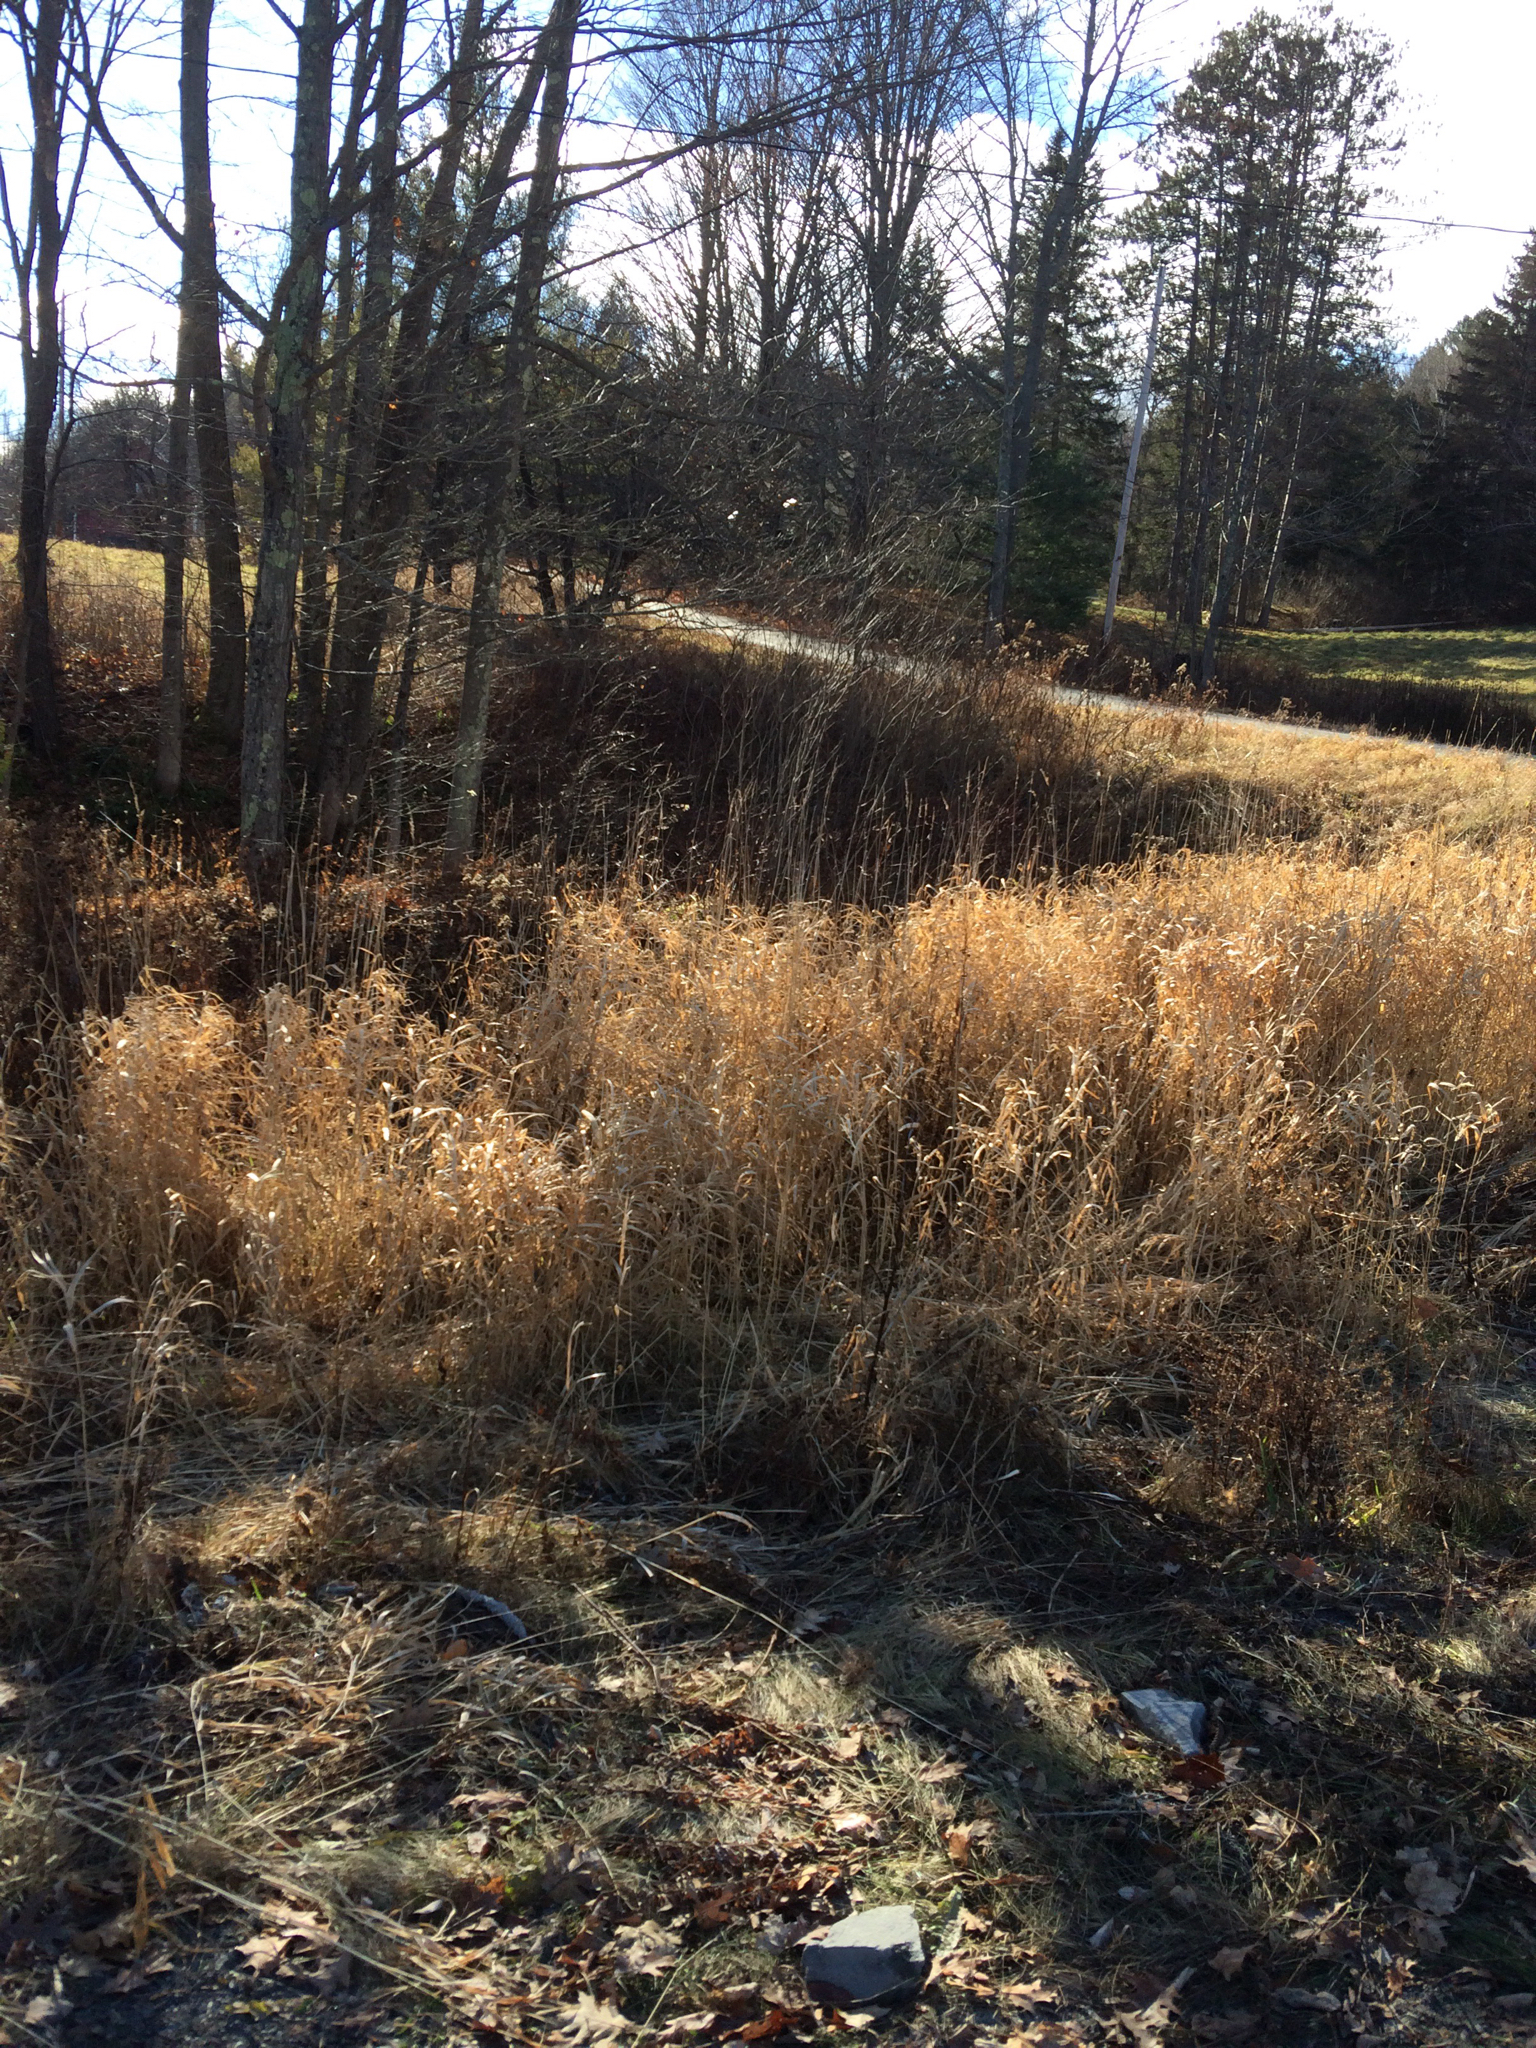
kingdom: Plantae
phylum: Tracheophyta
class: Liliopsida
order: Poales
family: Poaceae
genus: Phalaris
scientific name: Phalaris arundinacea
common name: Reed canary-grass
